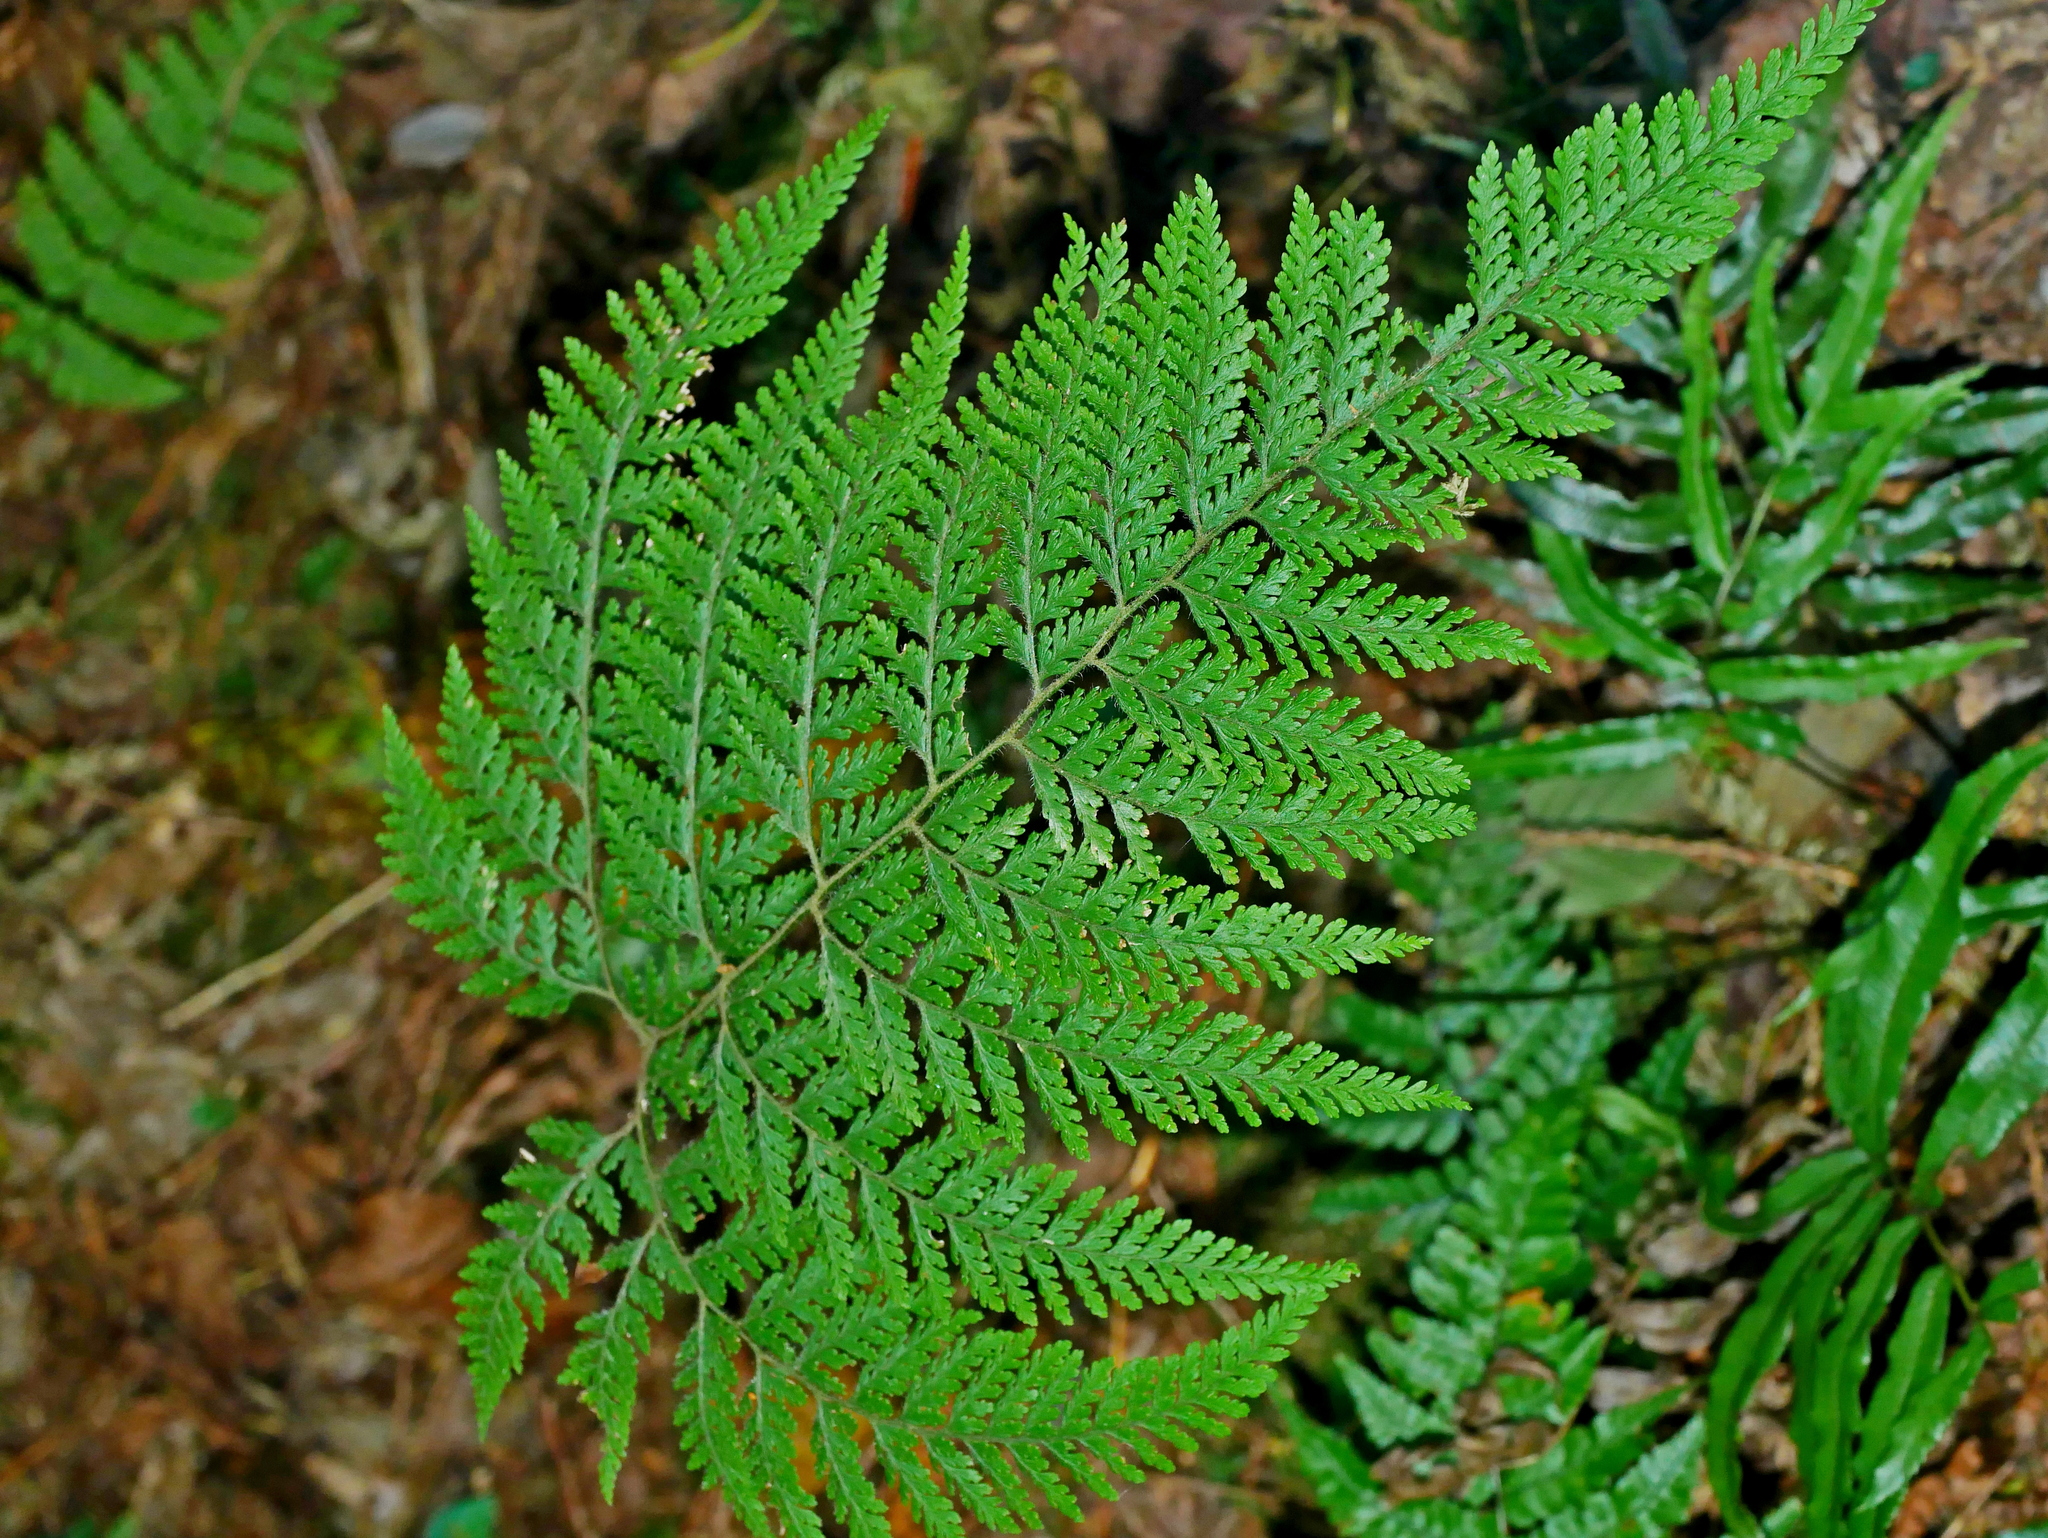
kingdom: Plantae
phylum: Tracheophyta
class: Polypodiopsida
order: Polypodiales
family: Dennstaedtiaceae
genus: Sitobolium
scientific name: Sitobolium zeylanicum
